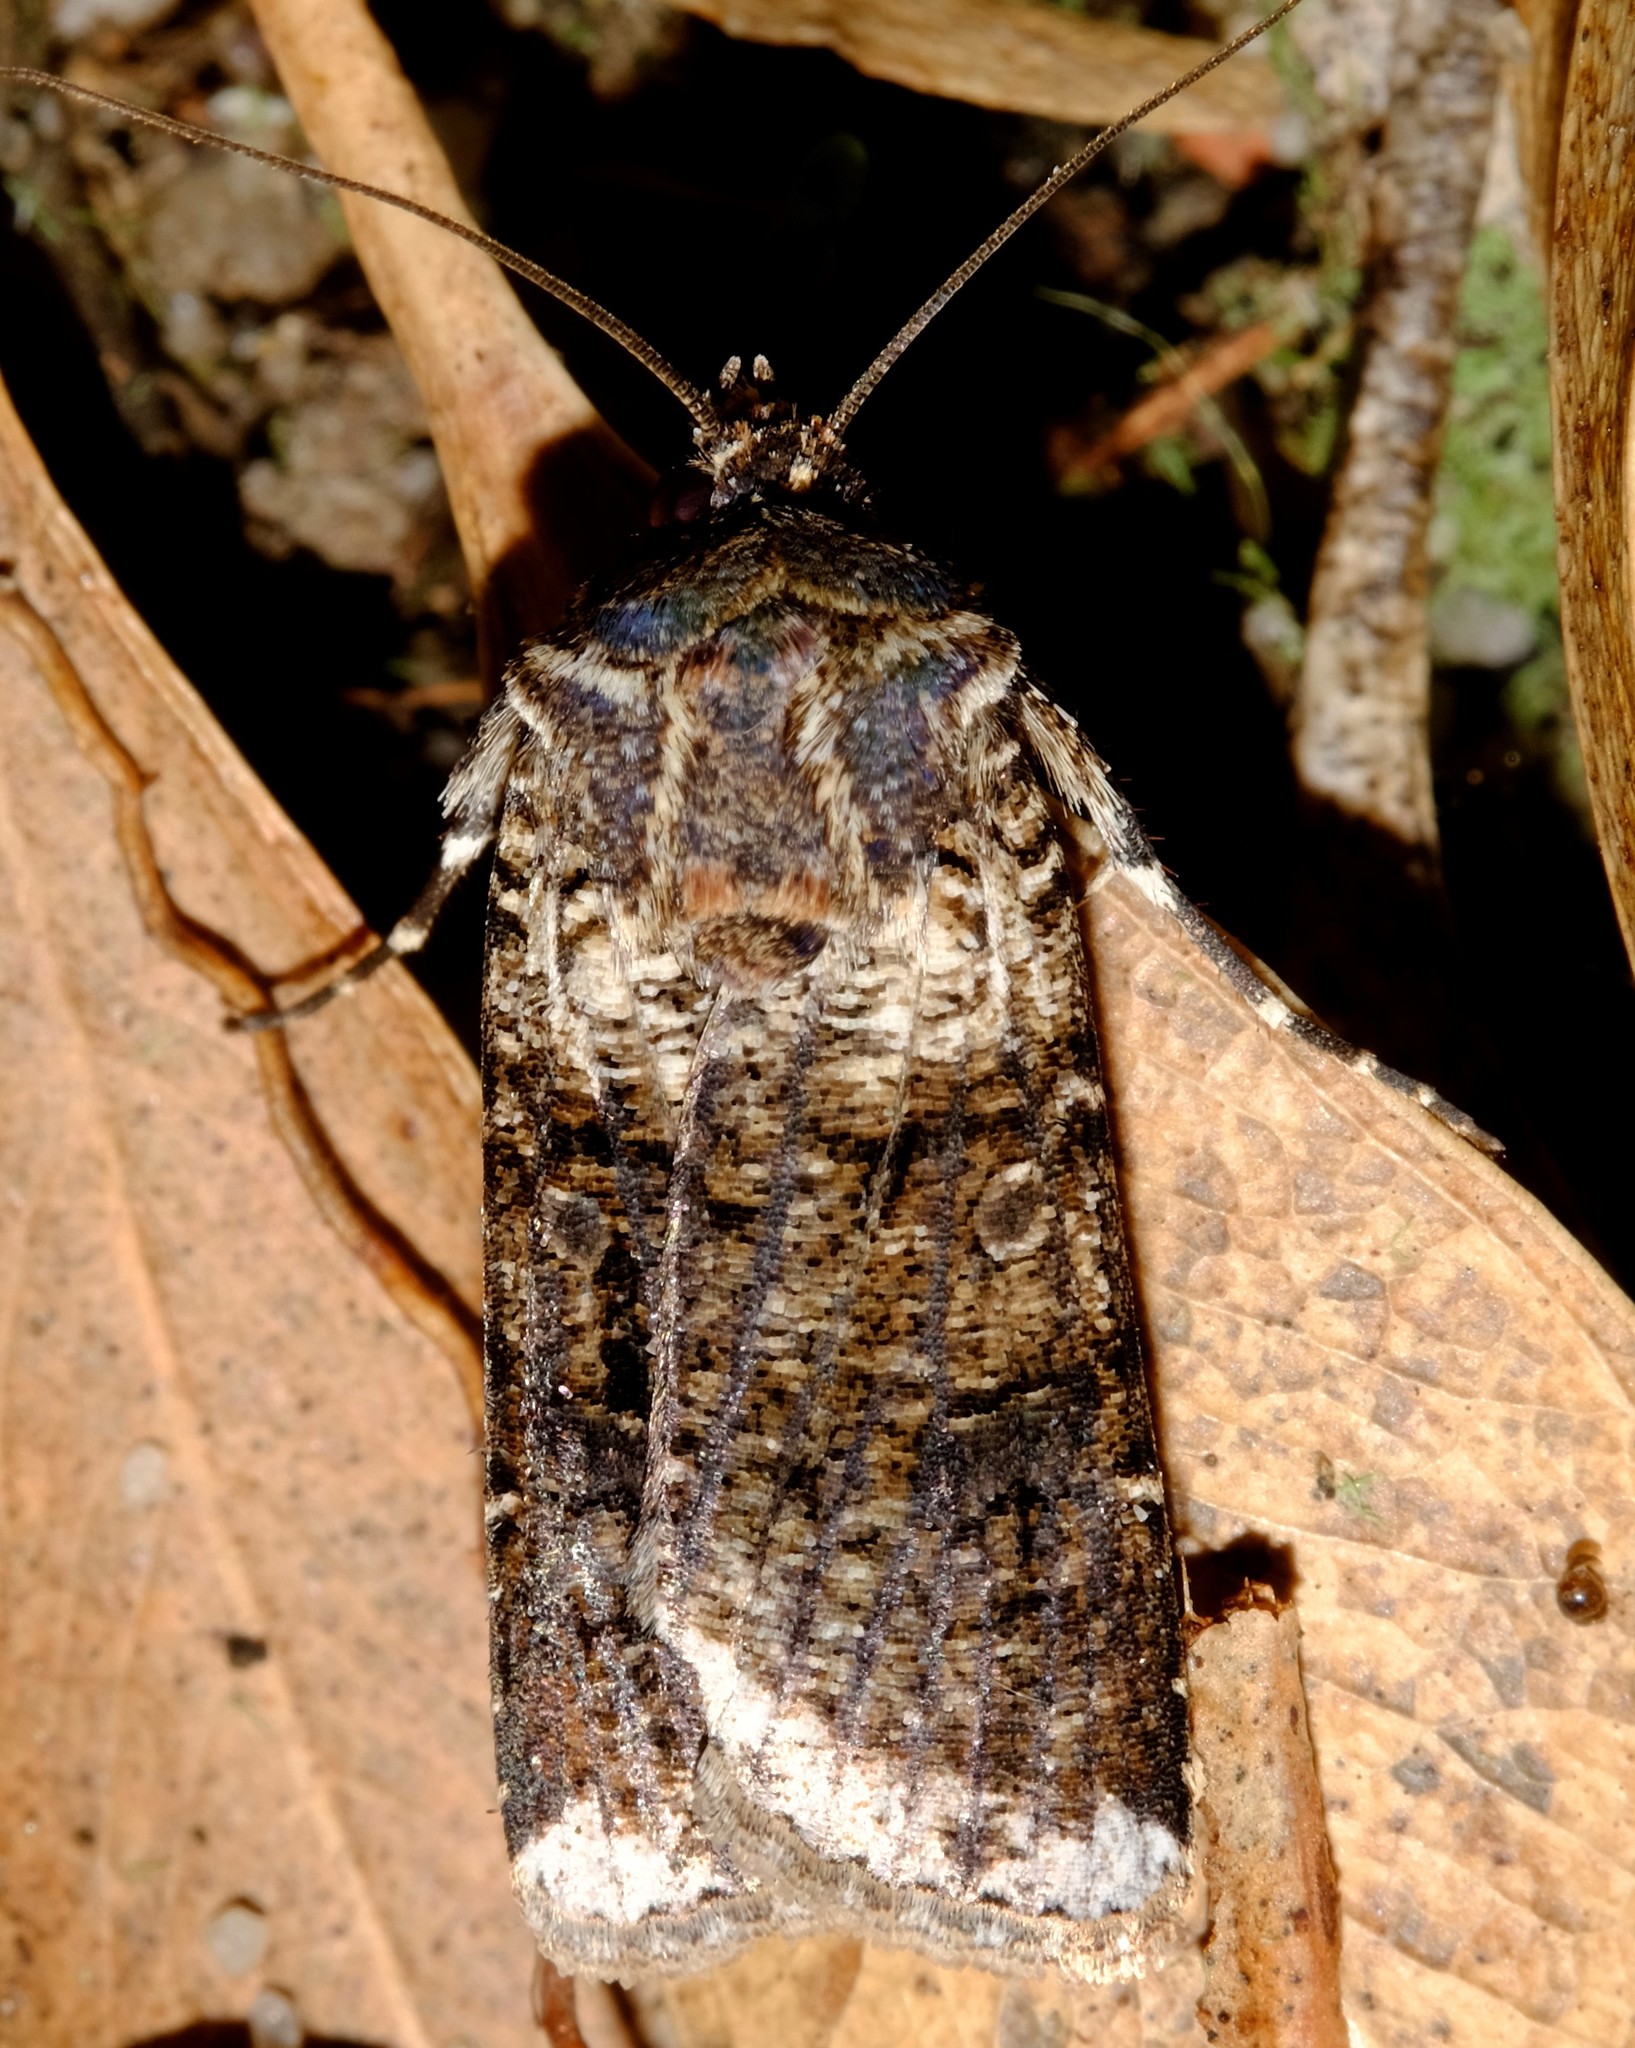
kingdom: Animalia
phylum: Arthropoda
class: Insecta
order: Lepidoptera
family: Noctuidae
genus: Agrotis
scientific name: Agrotis porphyricollis
